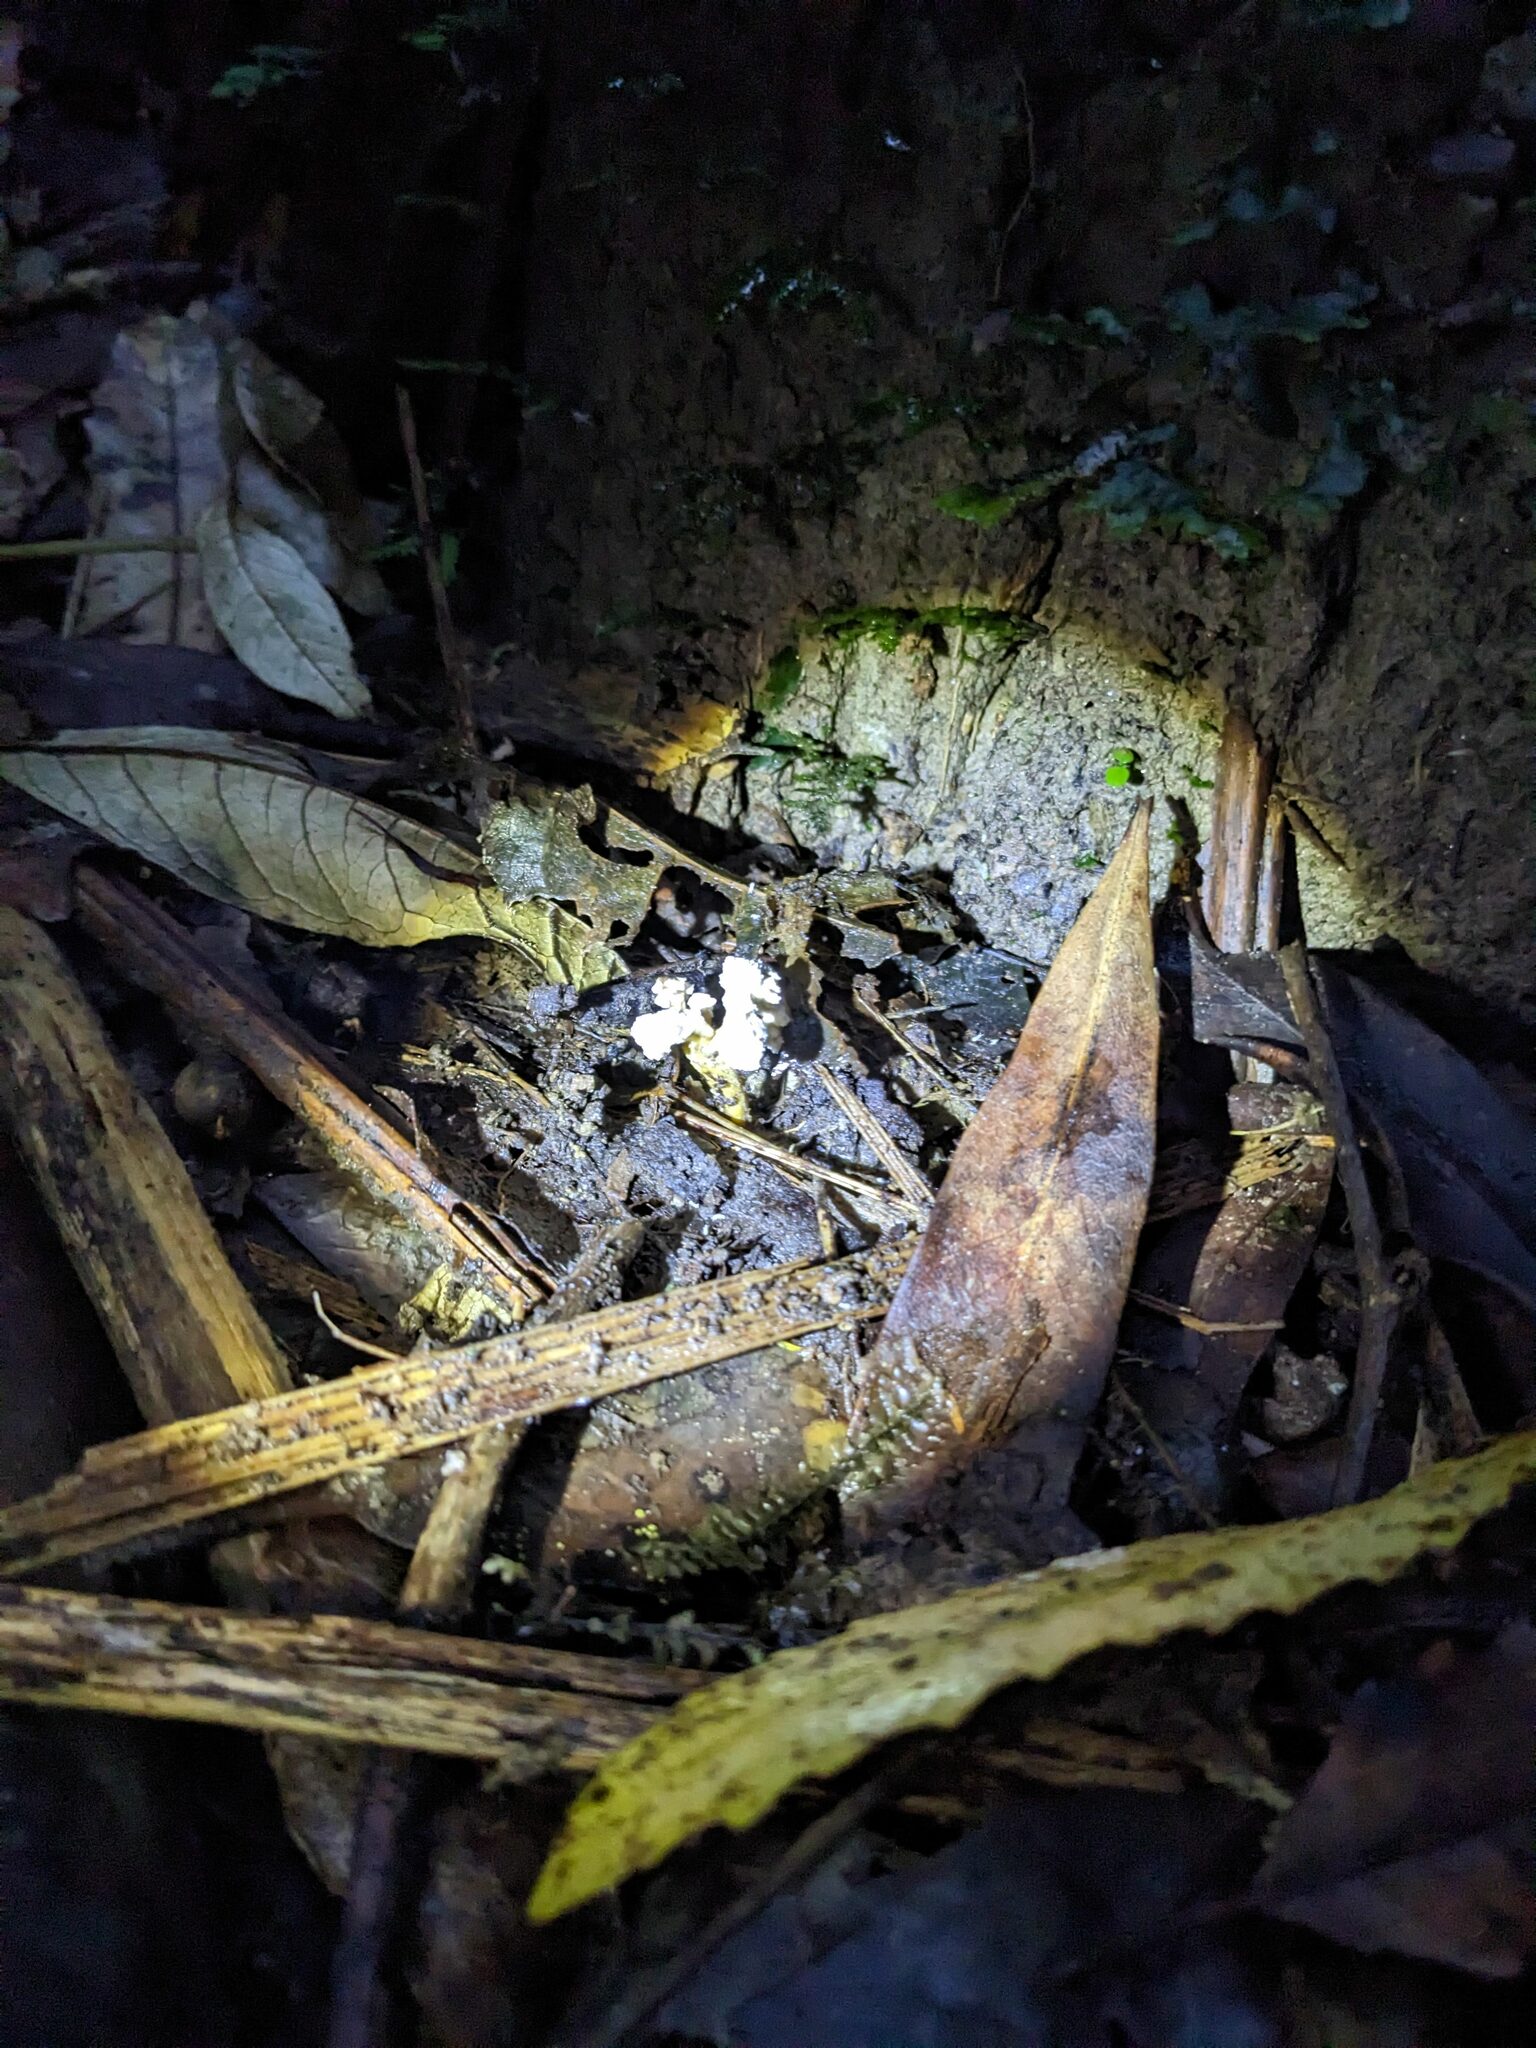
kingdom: Fungi
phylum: Ascomycota
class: Sordariomycetes
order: Hypocreales
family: Cordycipitaceae
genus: Cordyceps
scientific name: Cordyceps tenuipes
